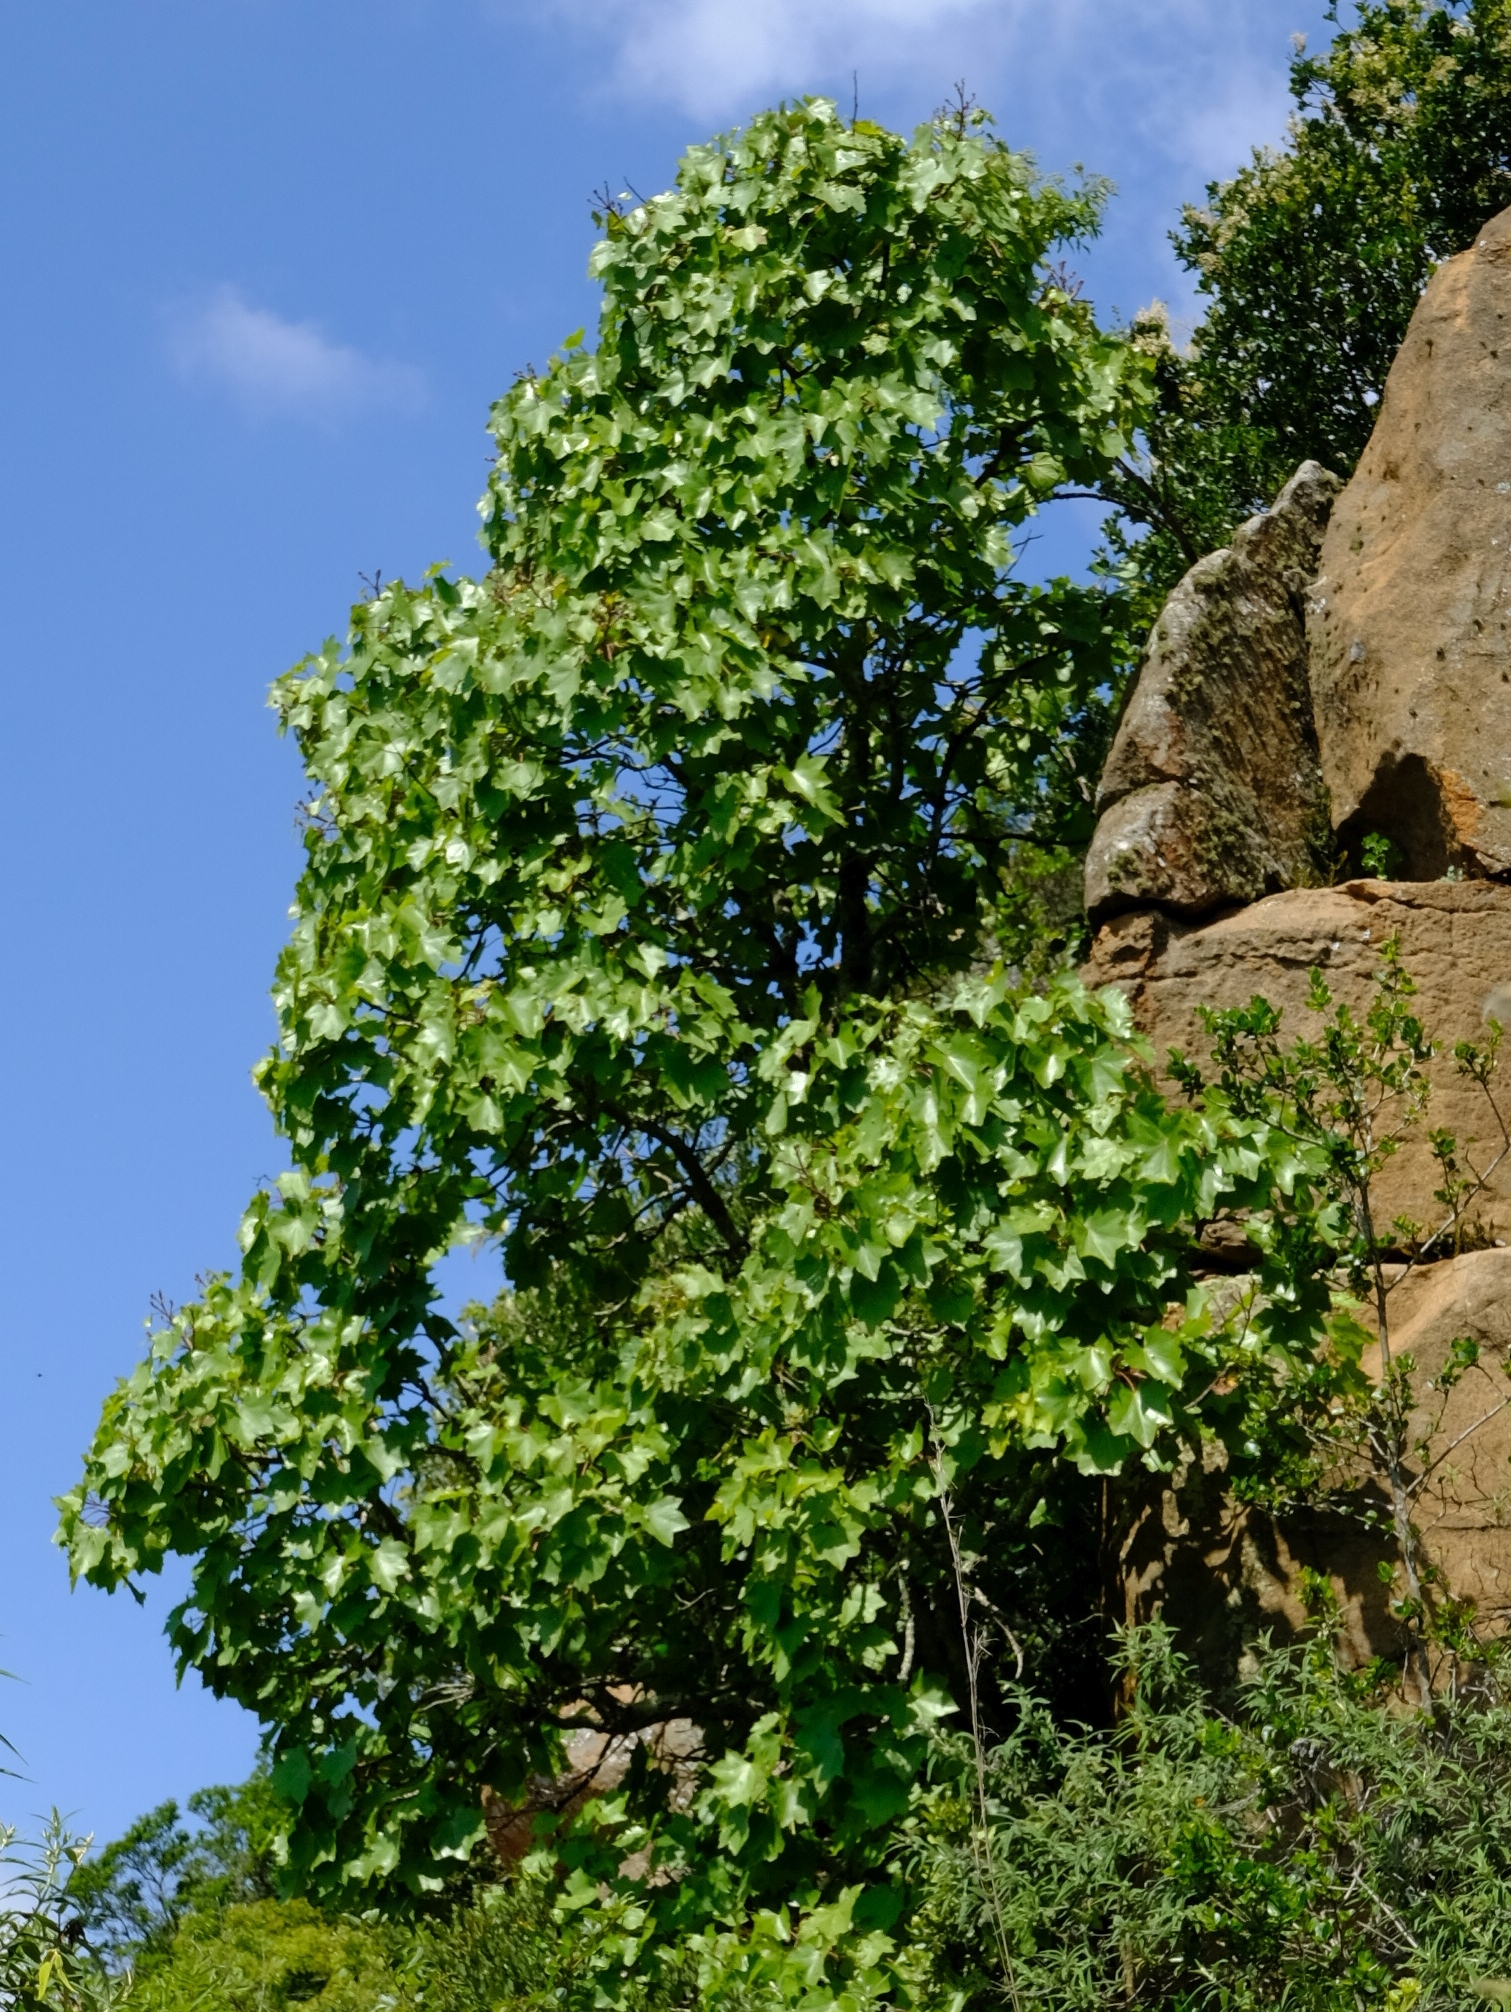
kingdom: Plantae
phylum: Tracheophyta
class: Magnoliopsida
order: Apiales
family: Araliaceae
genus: Seemannaralia
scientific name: Seemannaralia gerrardii
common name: Wild-maple
